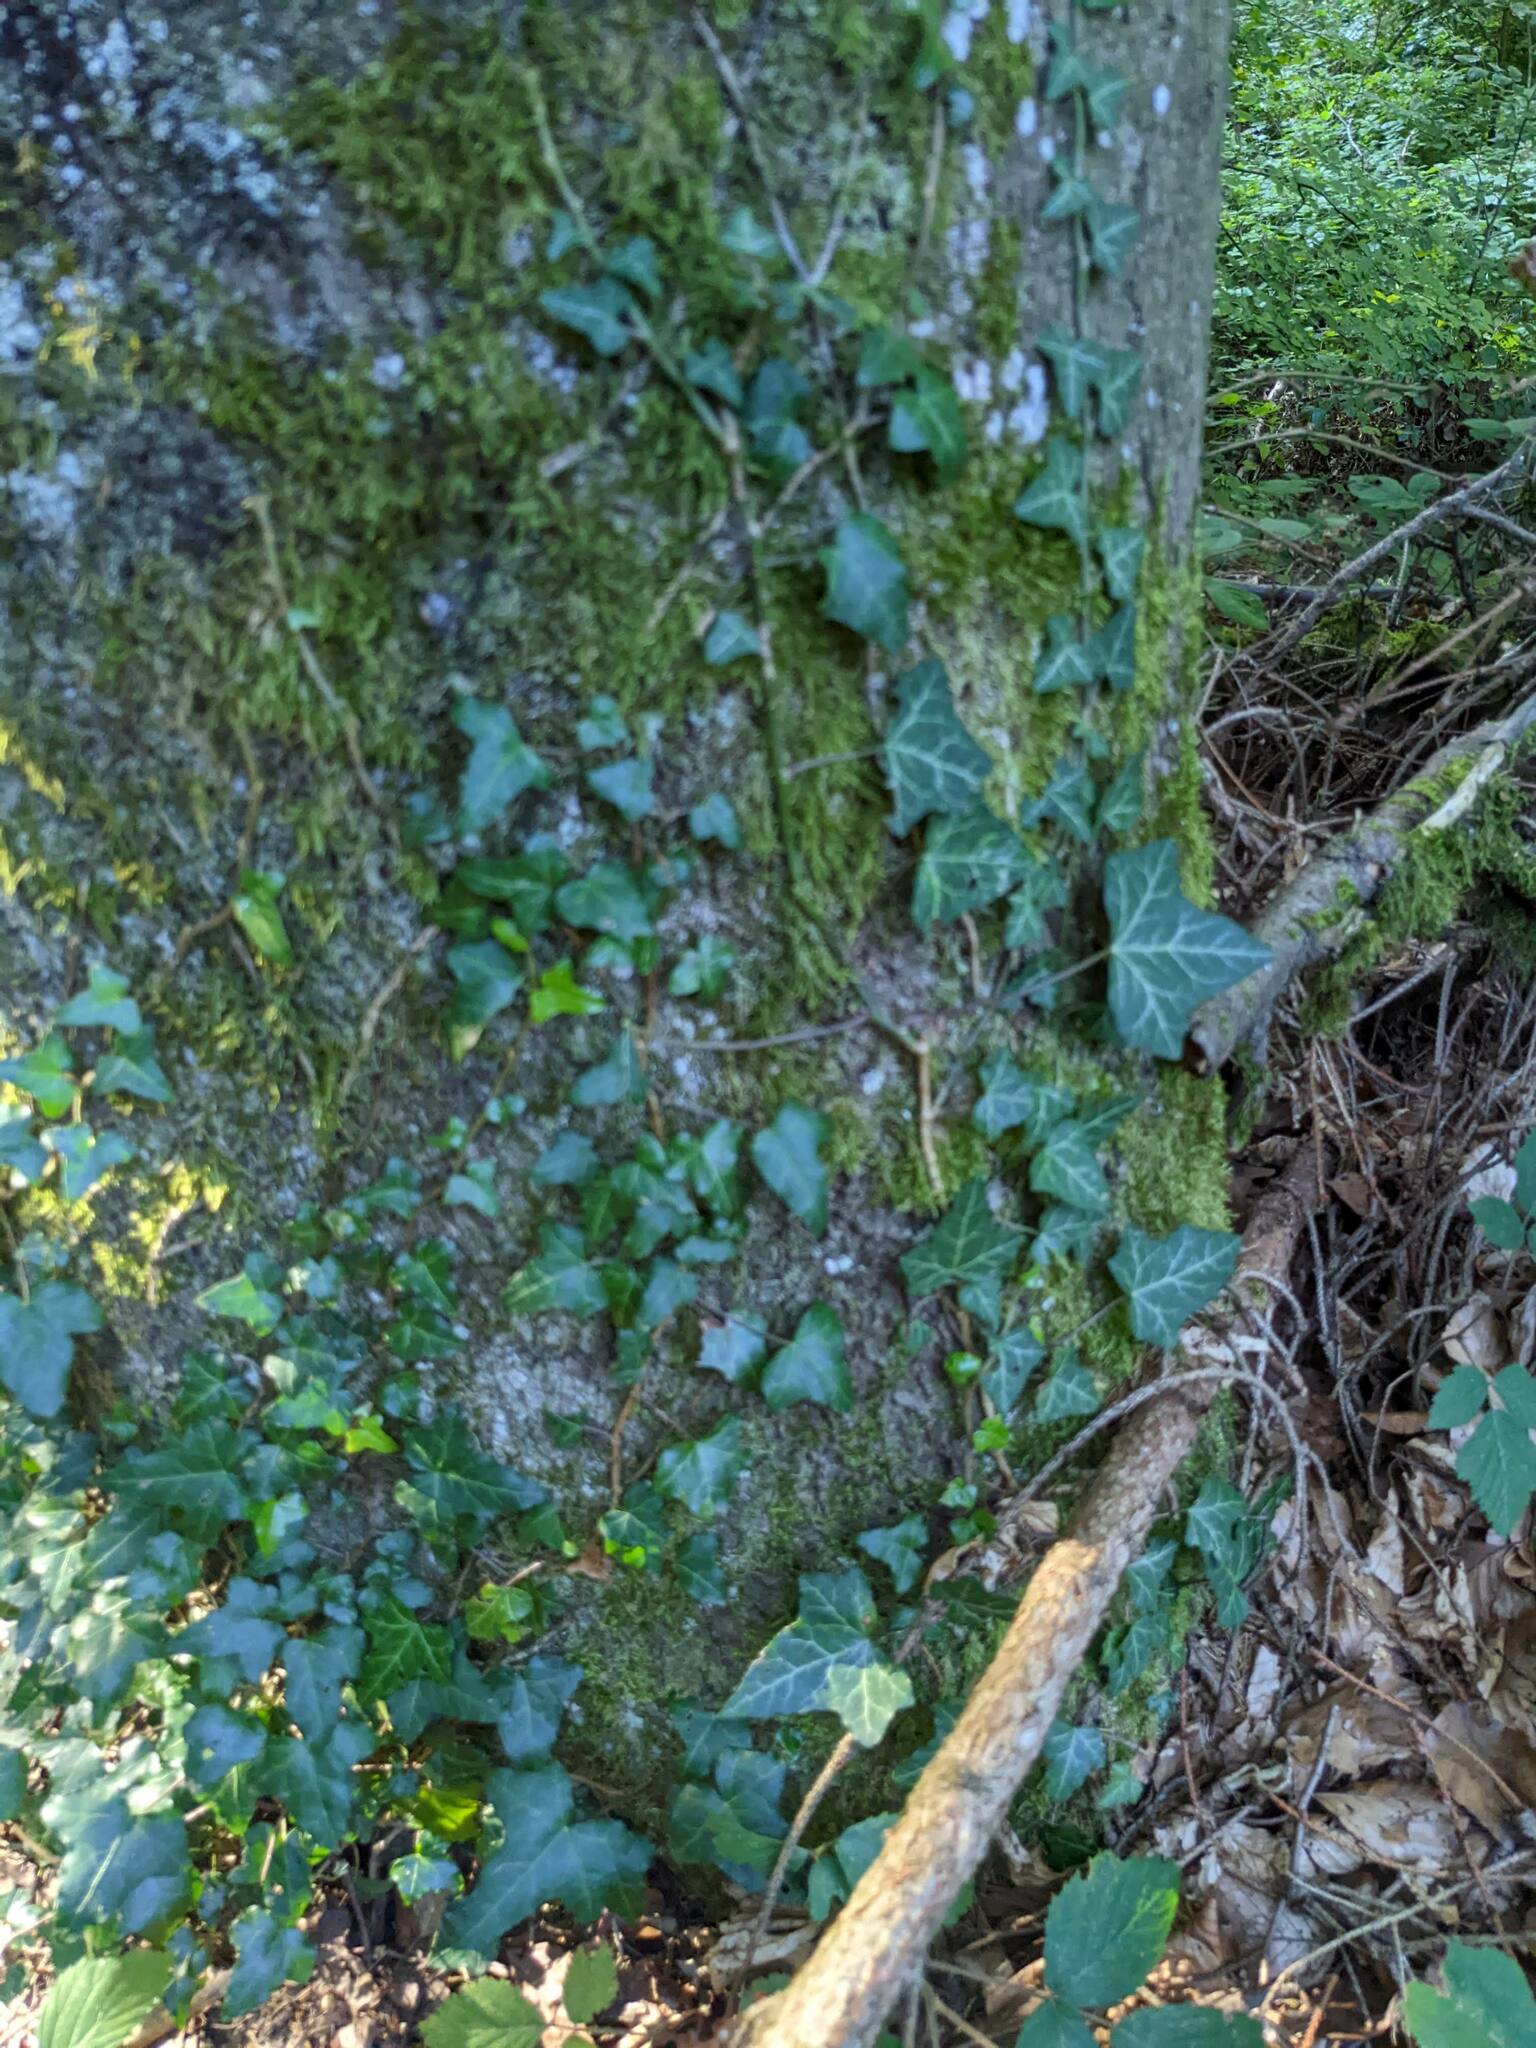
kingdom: Plantae
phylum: Tracheophyta
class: Magnoliopsida
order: Apiales
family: Araliaceae
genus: Hedera
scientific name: Hedera helix
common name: Ivy
